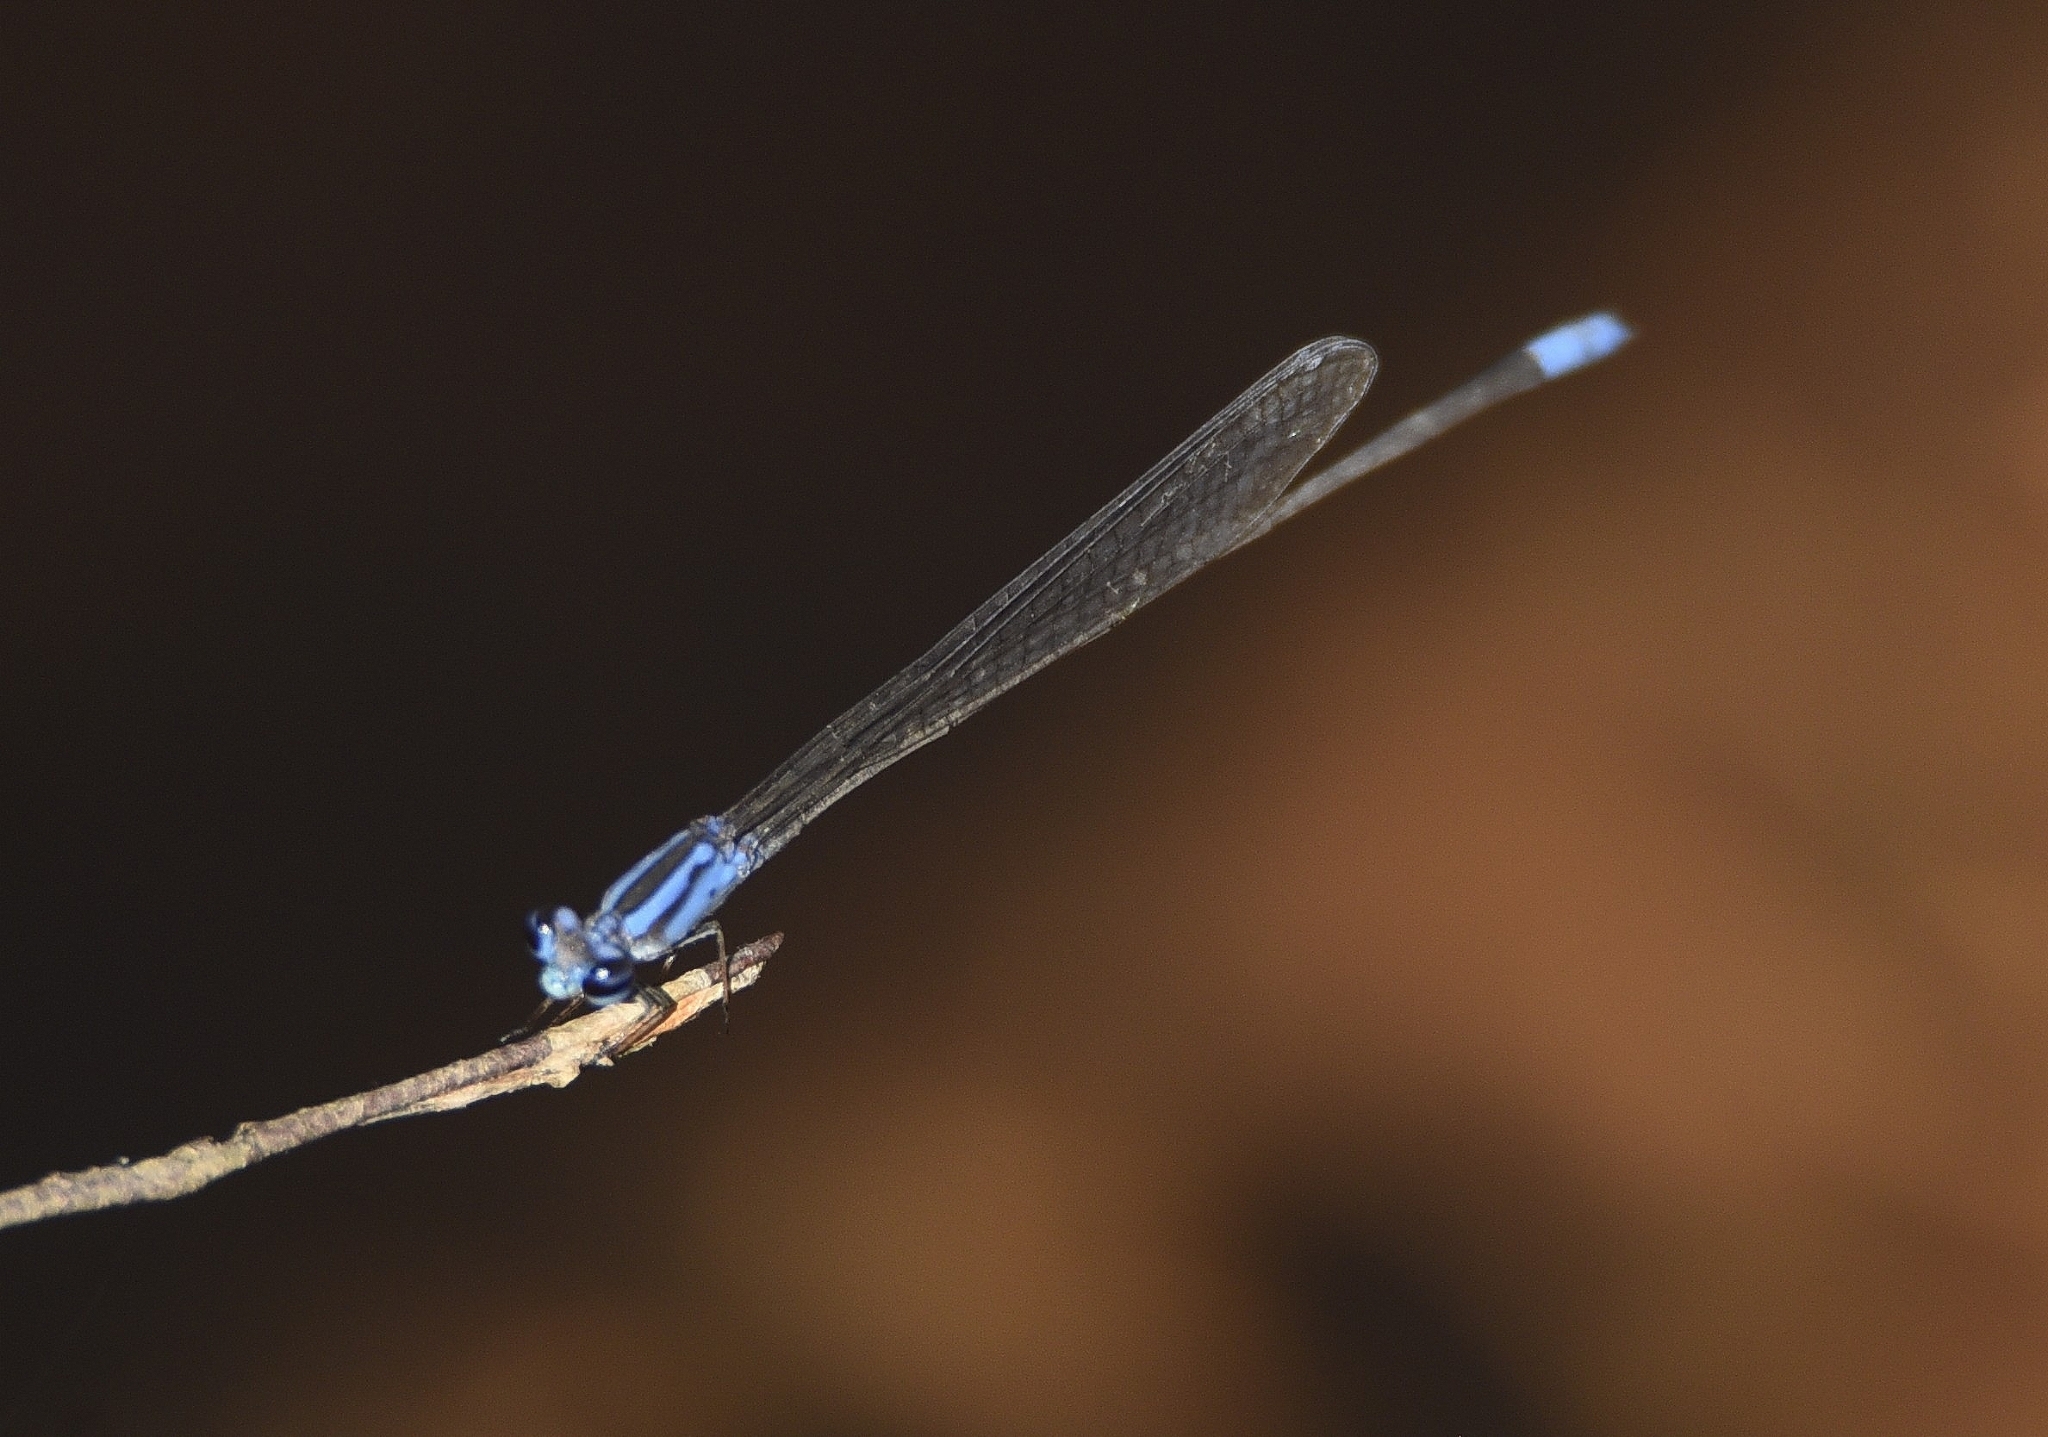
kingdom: Animalia
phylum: Arthropoda
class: Insecta
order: Odonata
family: Coenagrionidae
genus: Archibasis
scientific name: Archibasis oscillans
